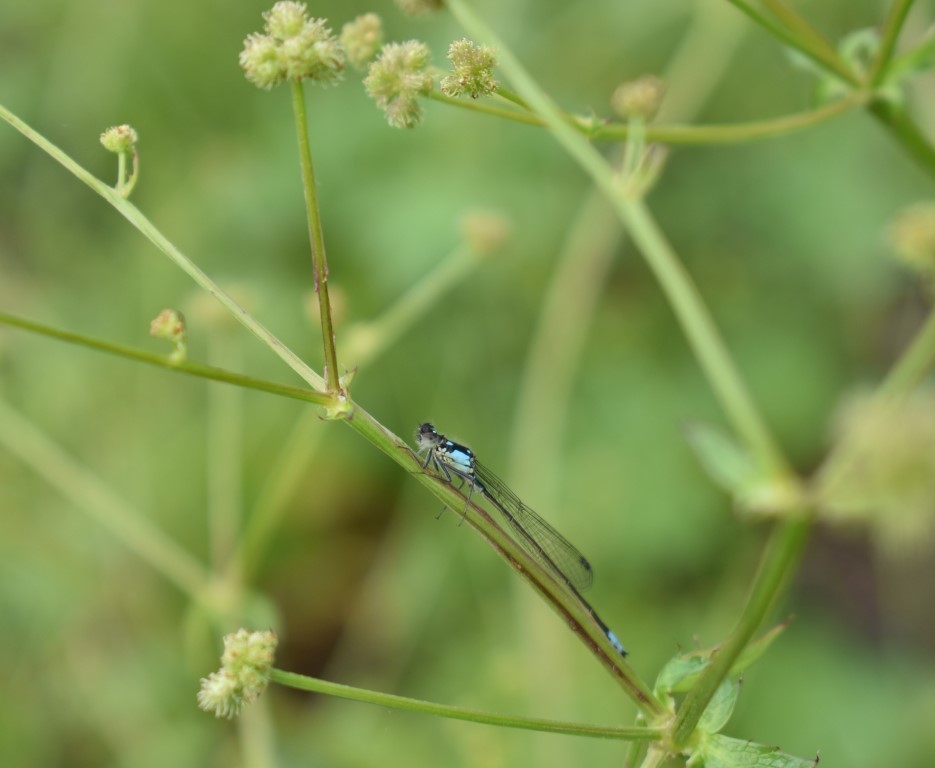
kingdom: Animalia
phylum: Arthropoda
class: Insecta
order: Odonata
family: Coenagrionidae
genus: Ischnura
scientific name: Ischnura cervula
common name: Pacific forktail
